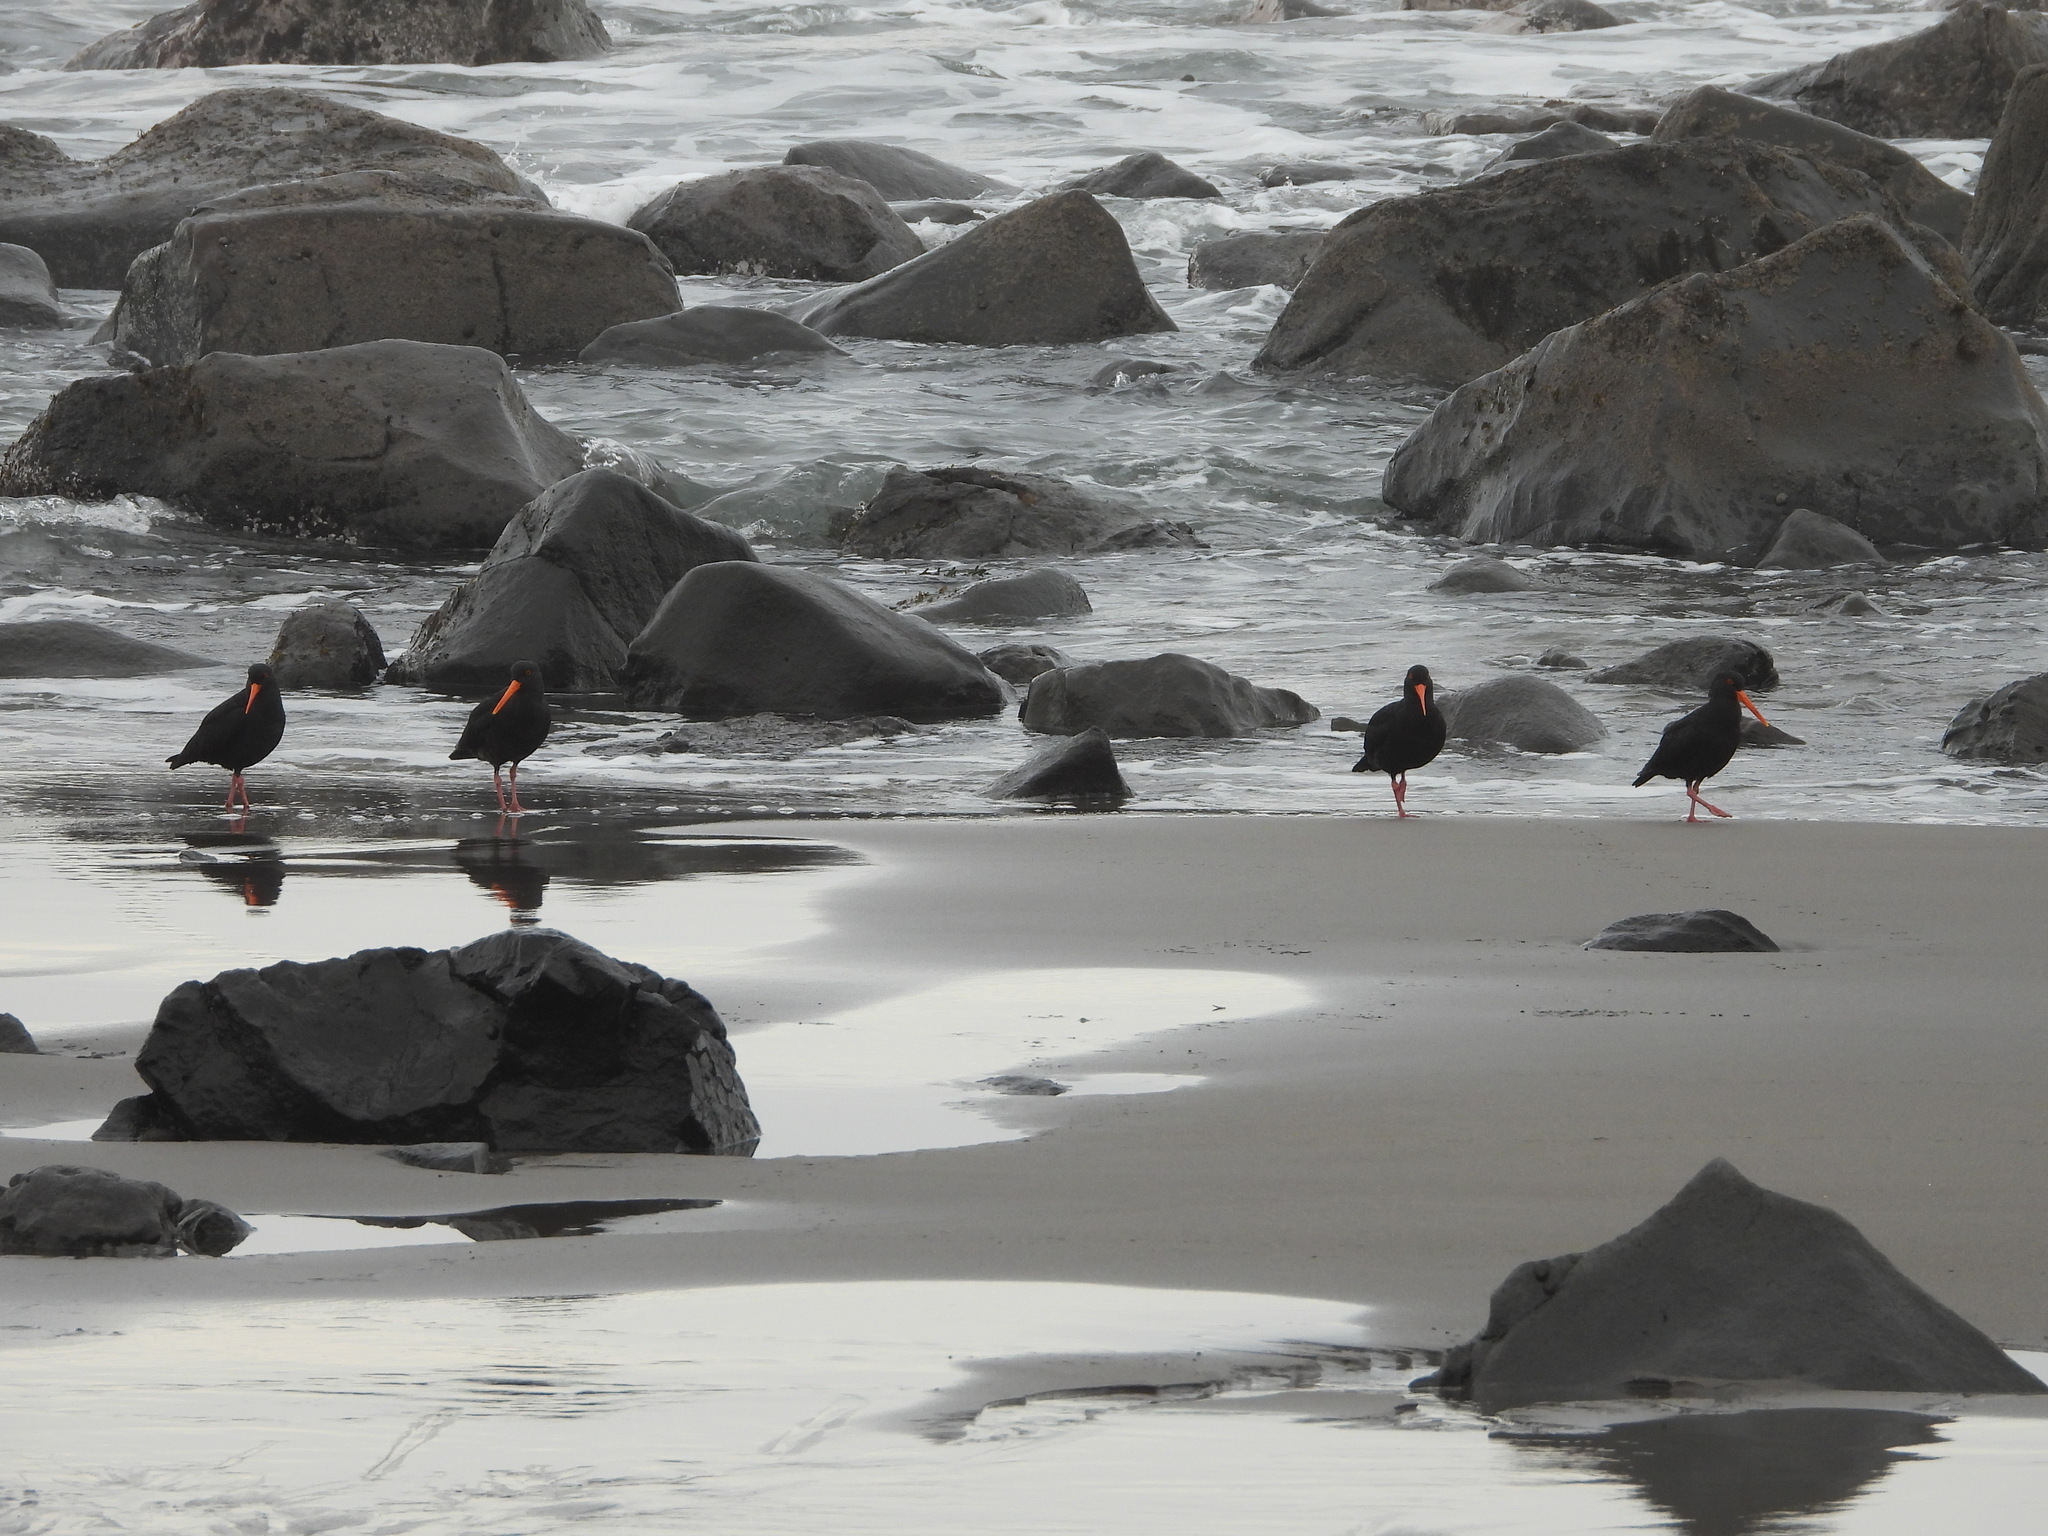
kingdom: Animalia
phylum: Chordata
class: Aves
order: Charadriiformes
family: Haematopodidae
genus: Haematopus
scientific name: Haematopus unicolor
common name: Variable oystercatcher
